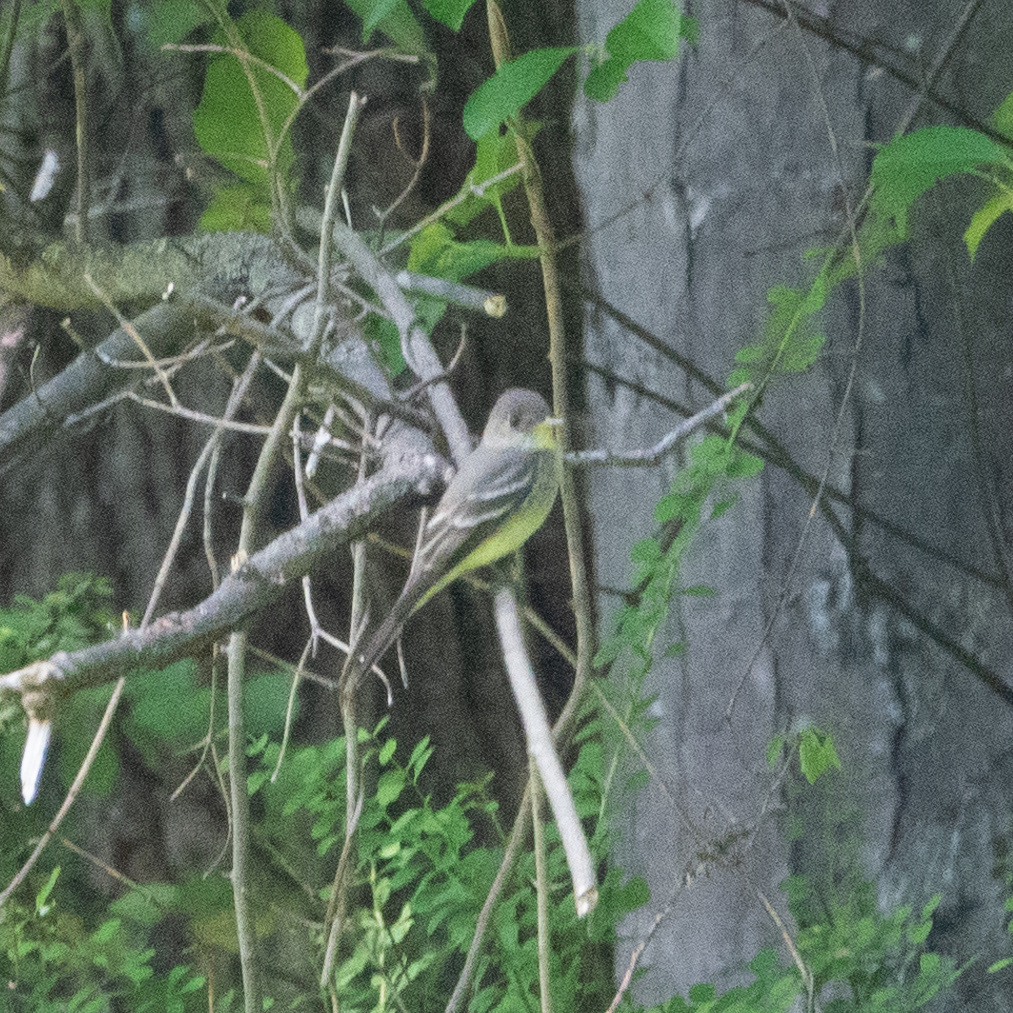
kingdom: Animalia
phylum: Chordata
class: Aves
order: Passeriformes
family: Tyrannidae
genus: Contopus
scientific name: Contopus virens
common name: Eastern wood-pewee
